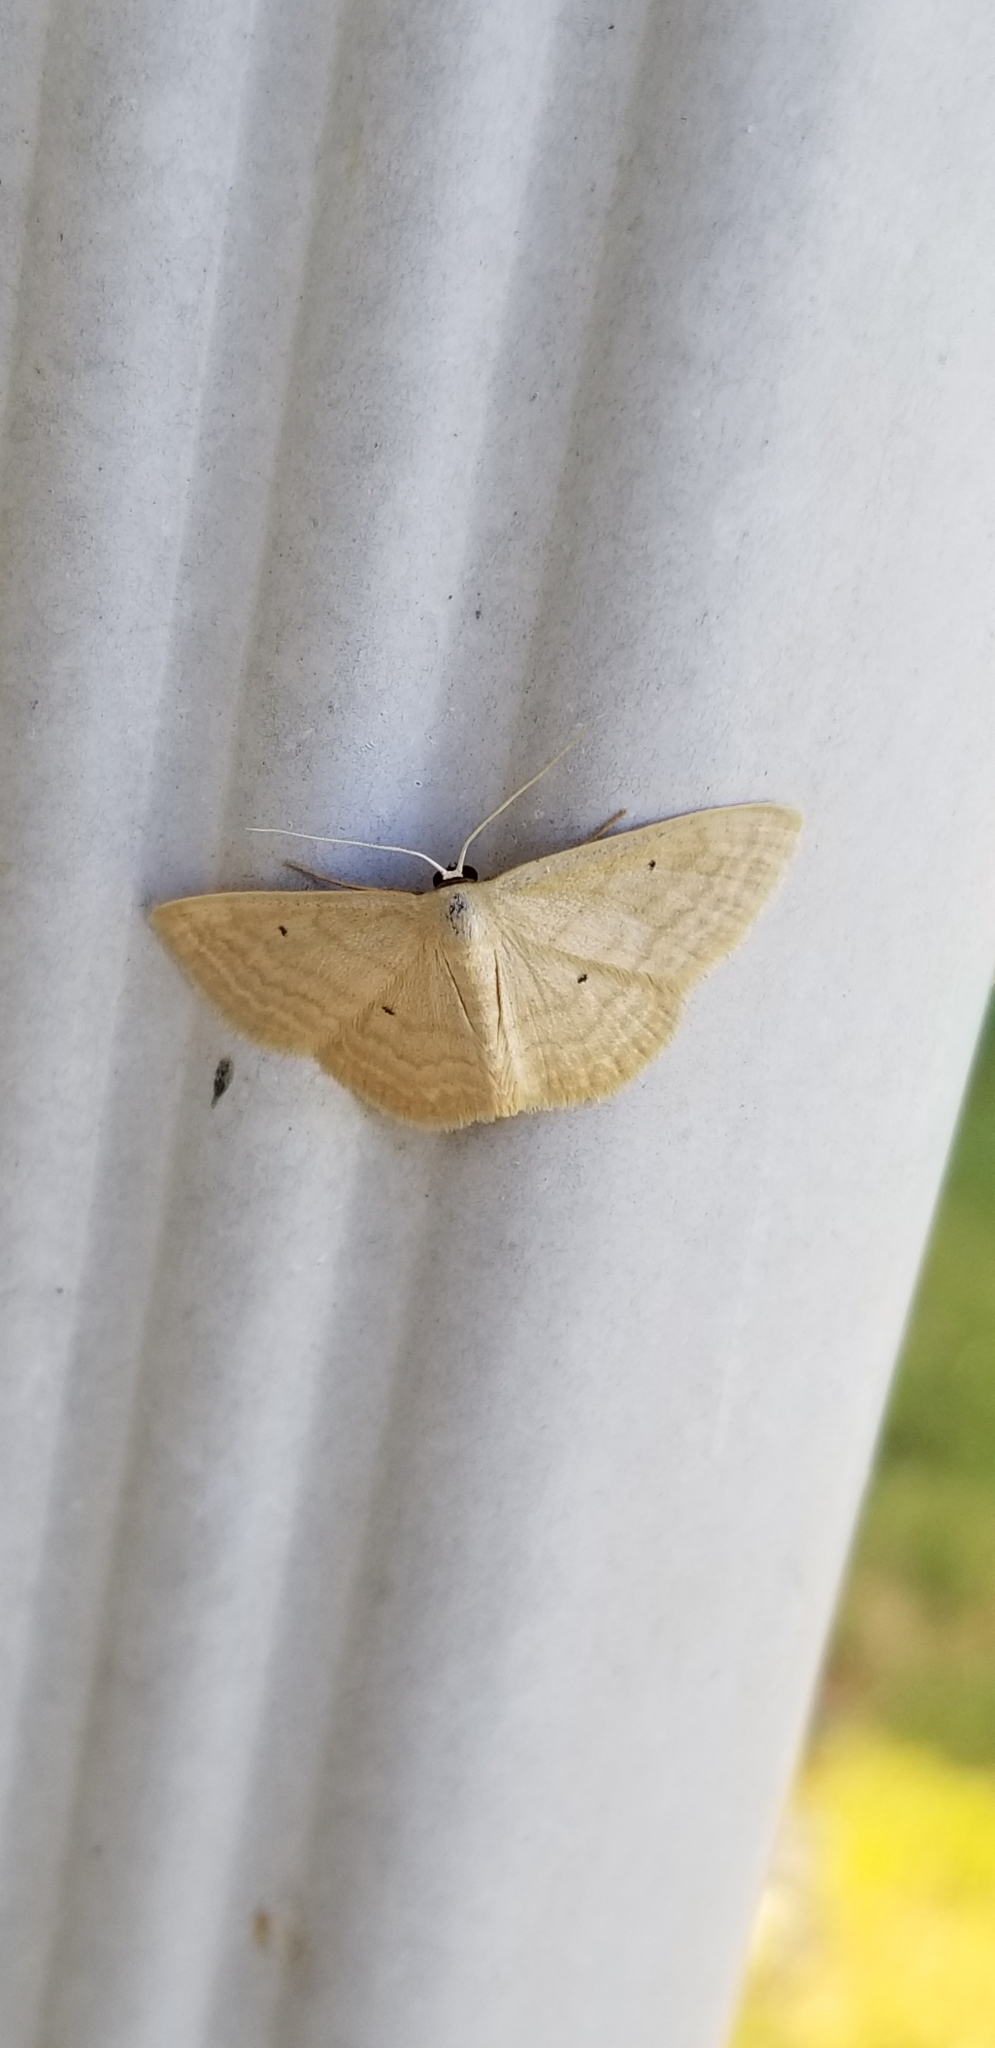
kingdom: Animalia
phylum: Arthropoda
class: Insecta
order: Lepidoptera
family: Geometridae
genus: Scopula
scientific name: Scopula inductata
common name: Soft-lined wave
